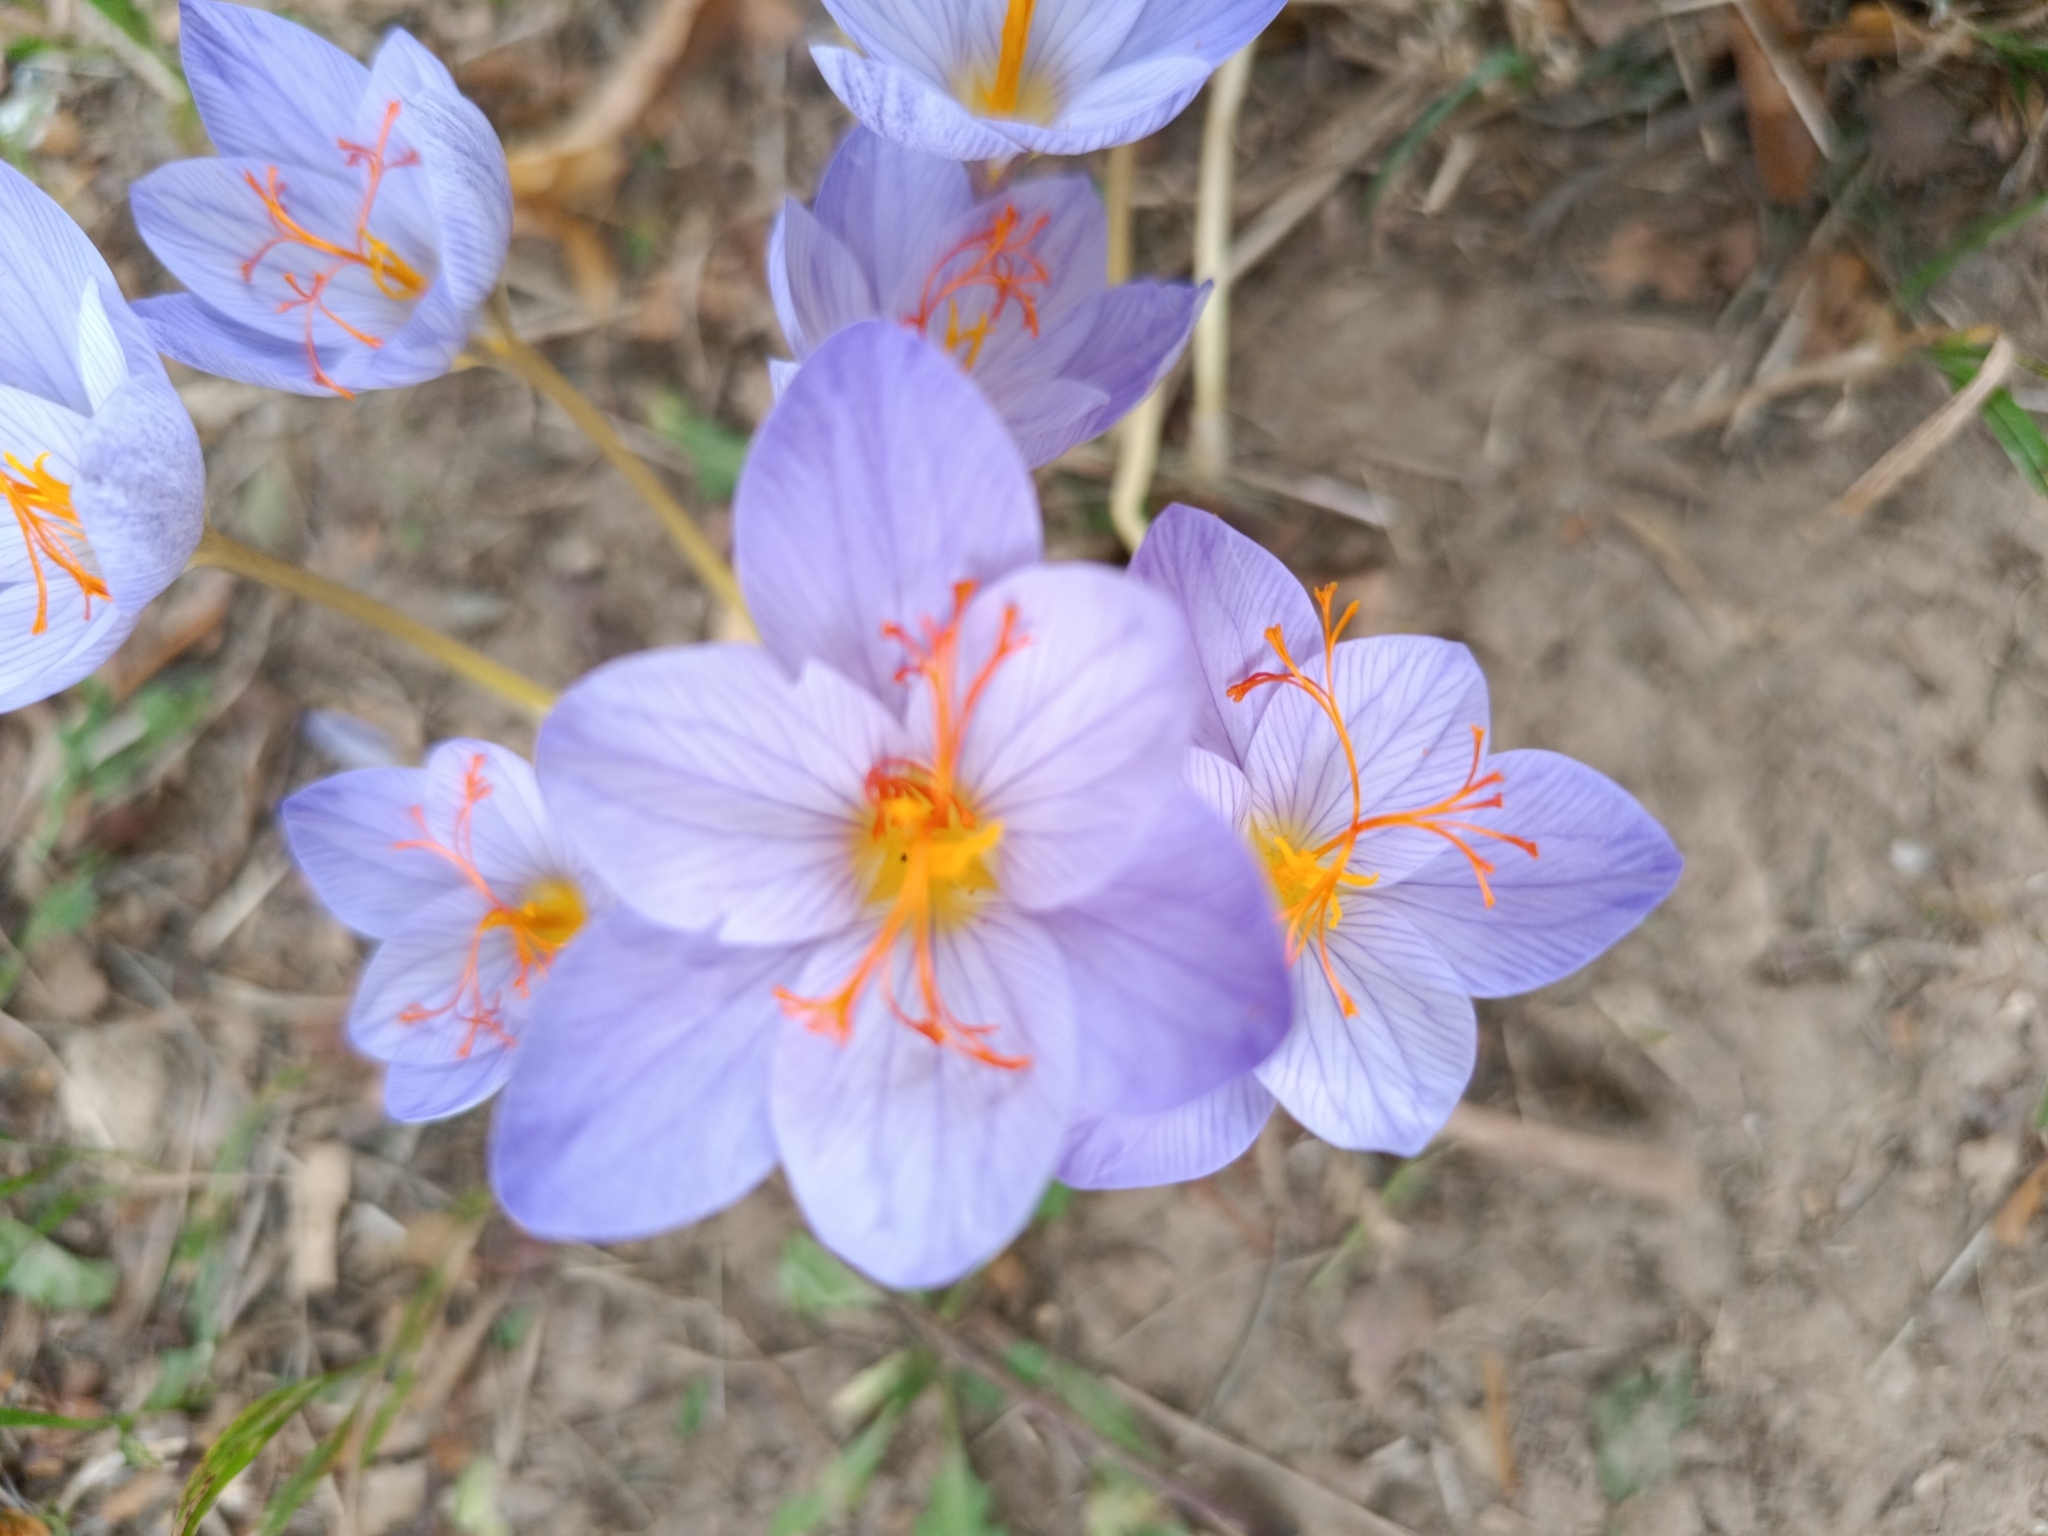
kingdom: Plantae
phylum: Tracheophyta
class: Liliopsida
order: Asparagales
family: Iridaceae
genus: Crocus
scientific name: Crocus speciosus
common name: Bieberstein's crocus
